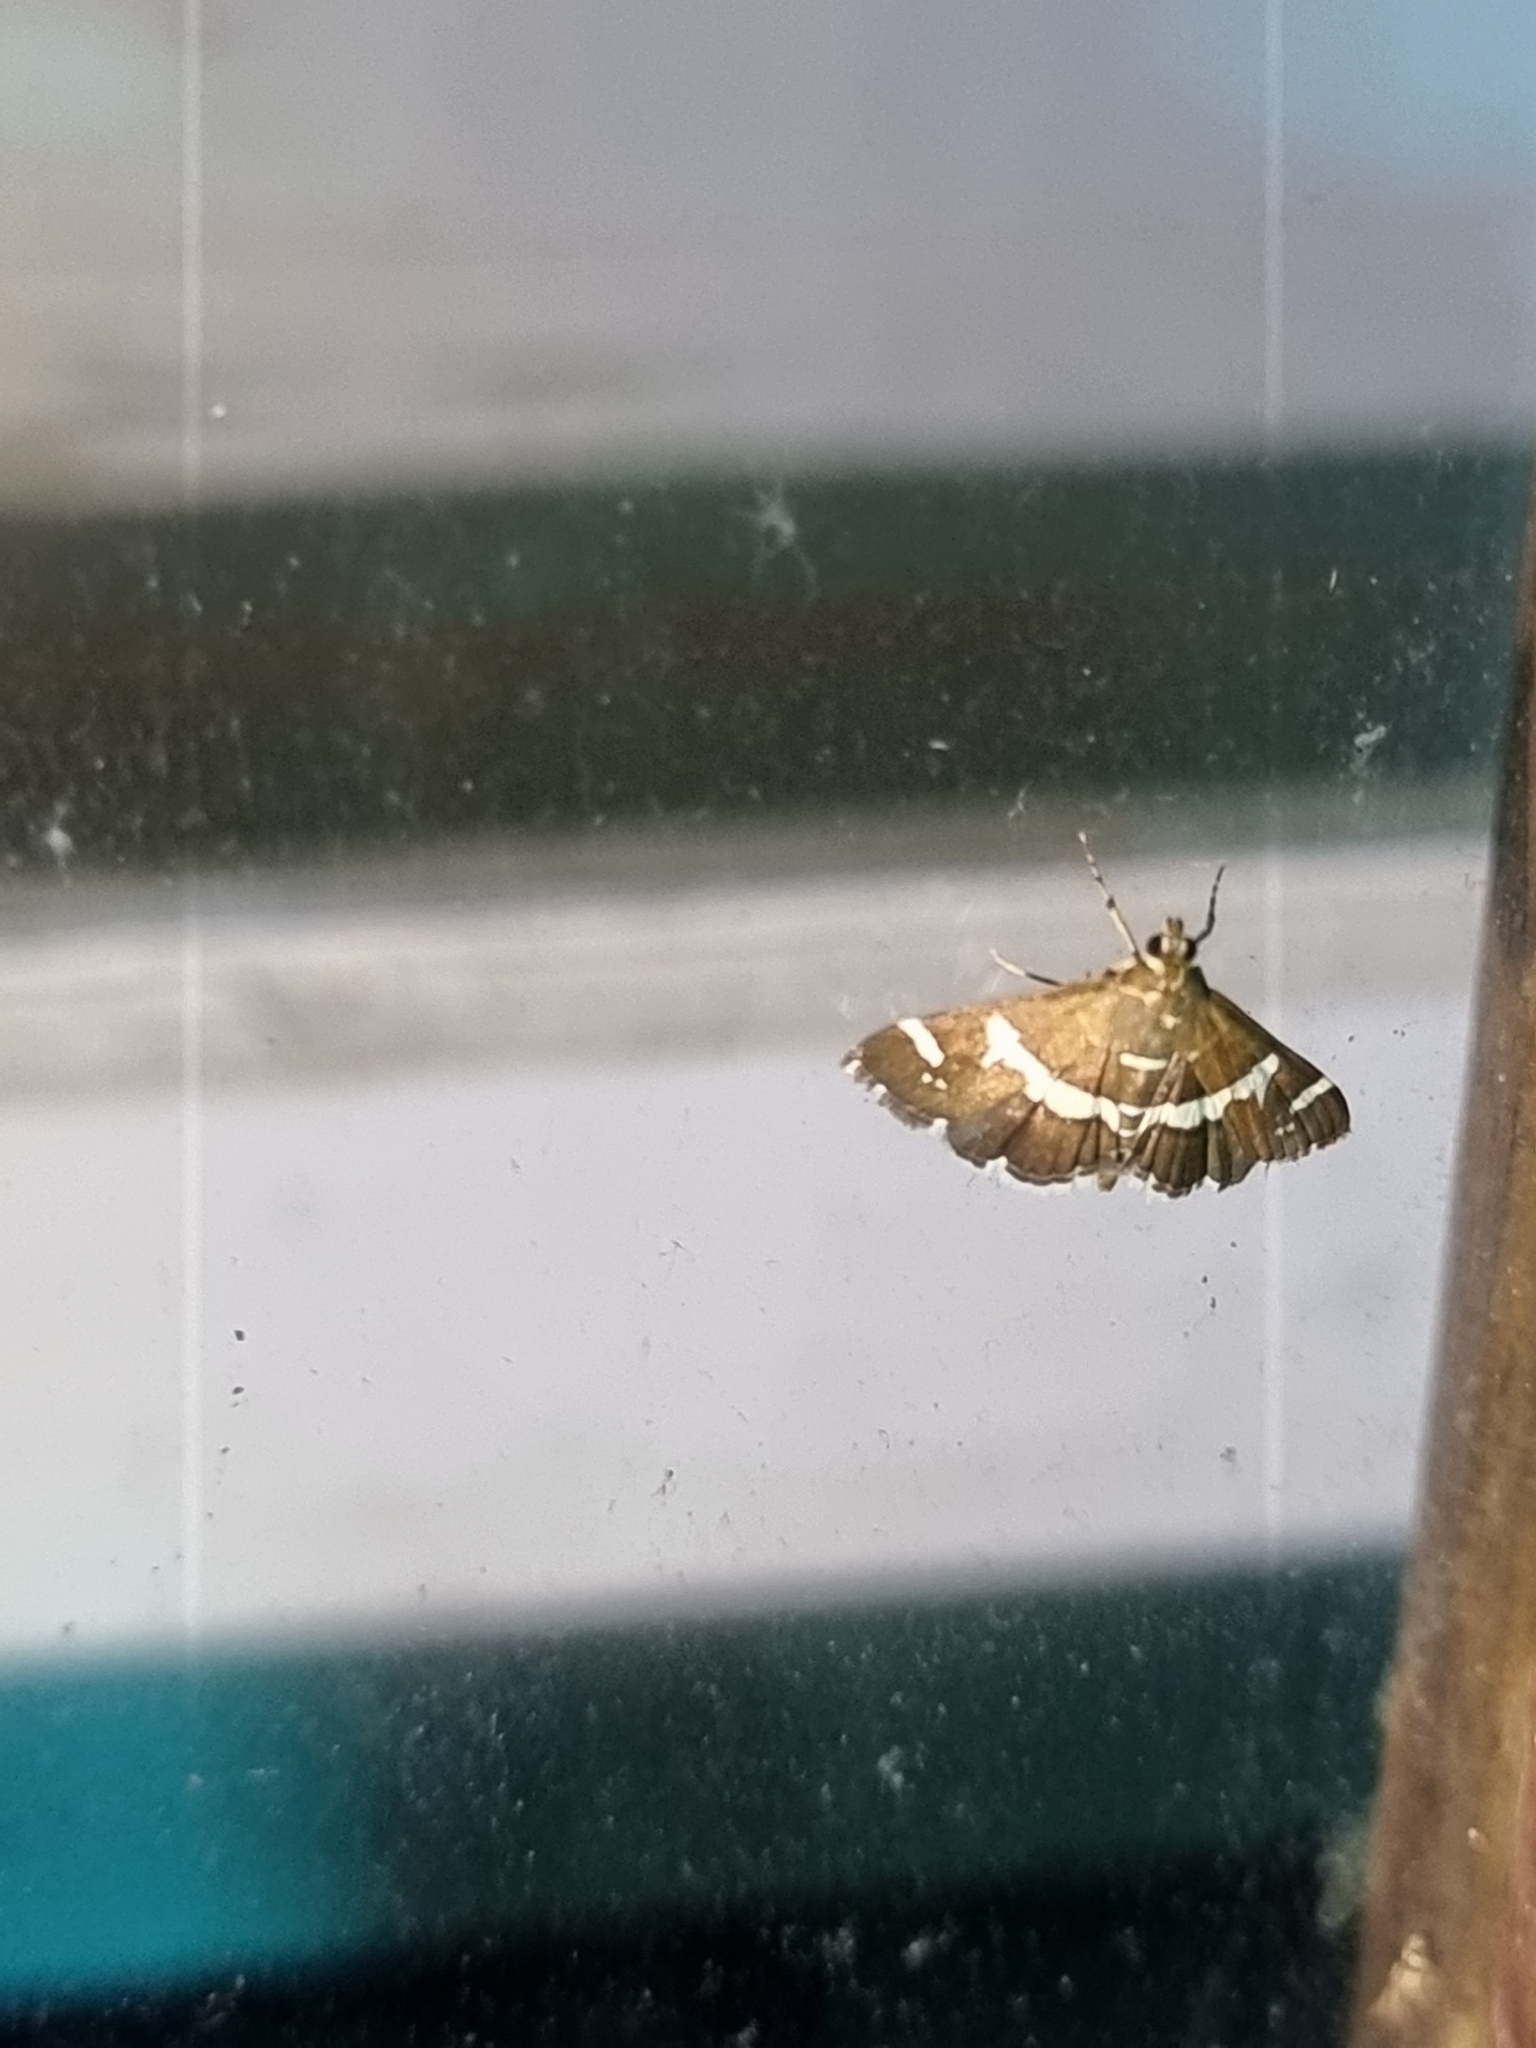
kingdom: Animalia
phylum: Arthropoda
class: Insecta
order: Lepidoptera
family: Crambidae
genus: Spoladea
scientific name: Spoladea recurvalis
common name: Beet webworm moth
